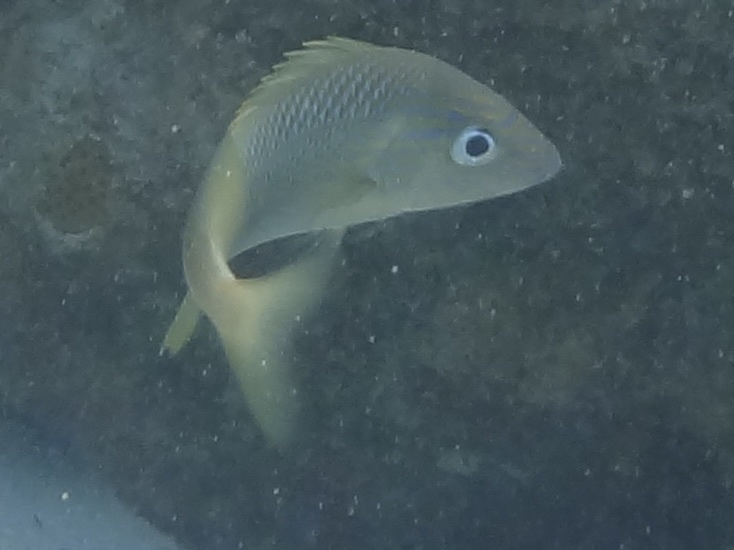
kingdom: Animalia
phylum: Chordata
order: Perciformes
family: Haemulidae
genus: Haemulon
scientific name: Haemulon plumierii
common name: White grunt
